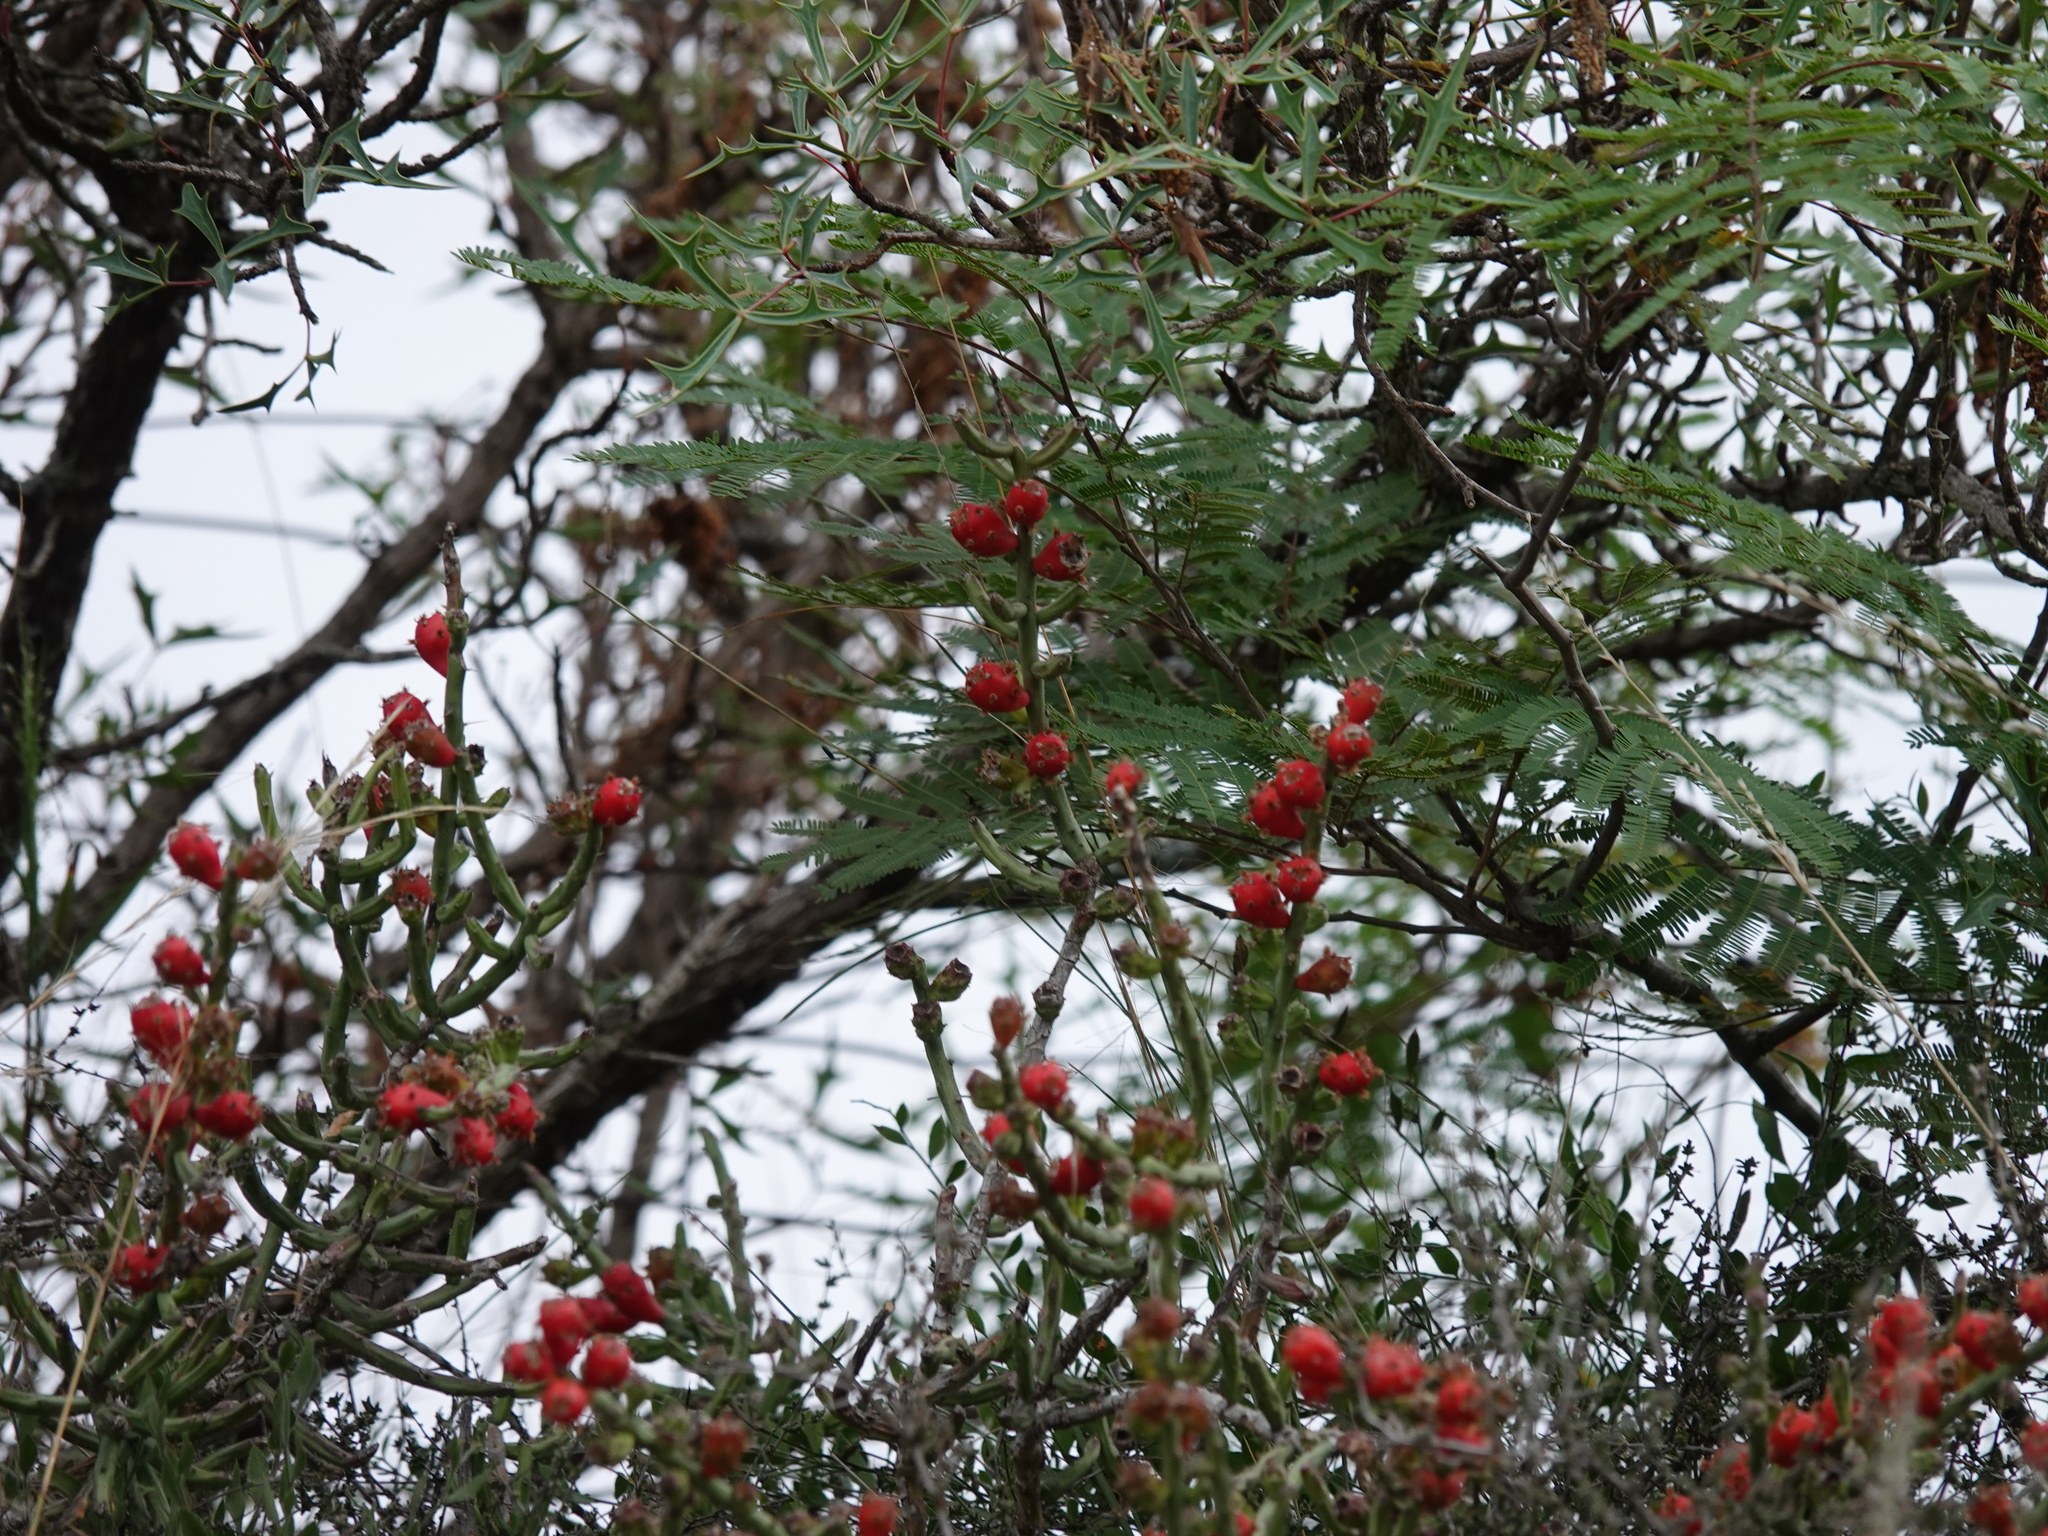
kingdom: Plantae
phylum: Tracheophyta
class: Magnoliopsida
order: Caryophyllales
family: Cactaceae
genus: Cylindropuntia
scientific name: Cylindropuntia leptocaulis
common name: Christmas cactus
